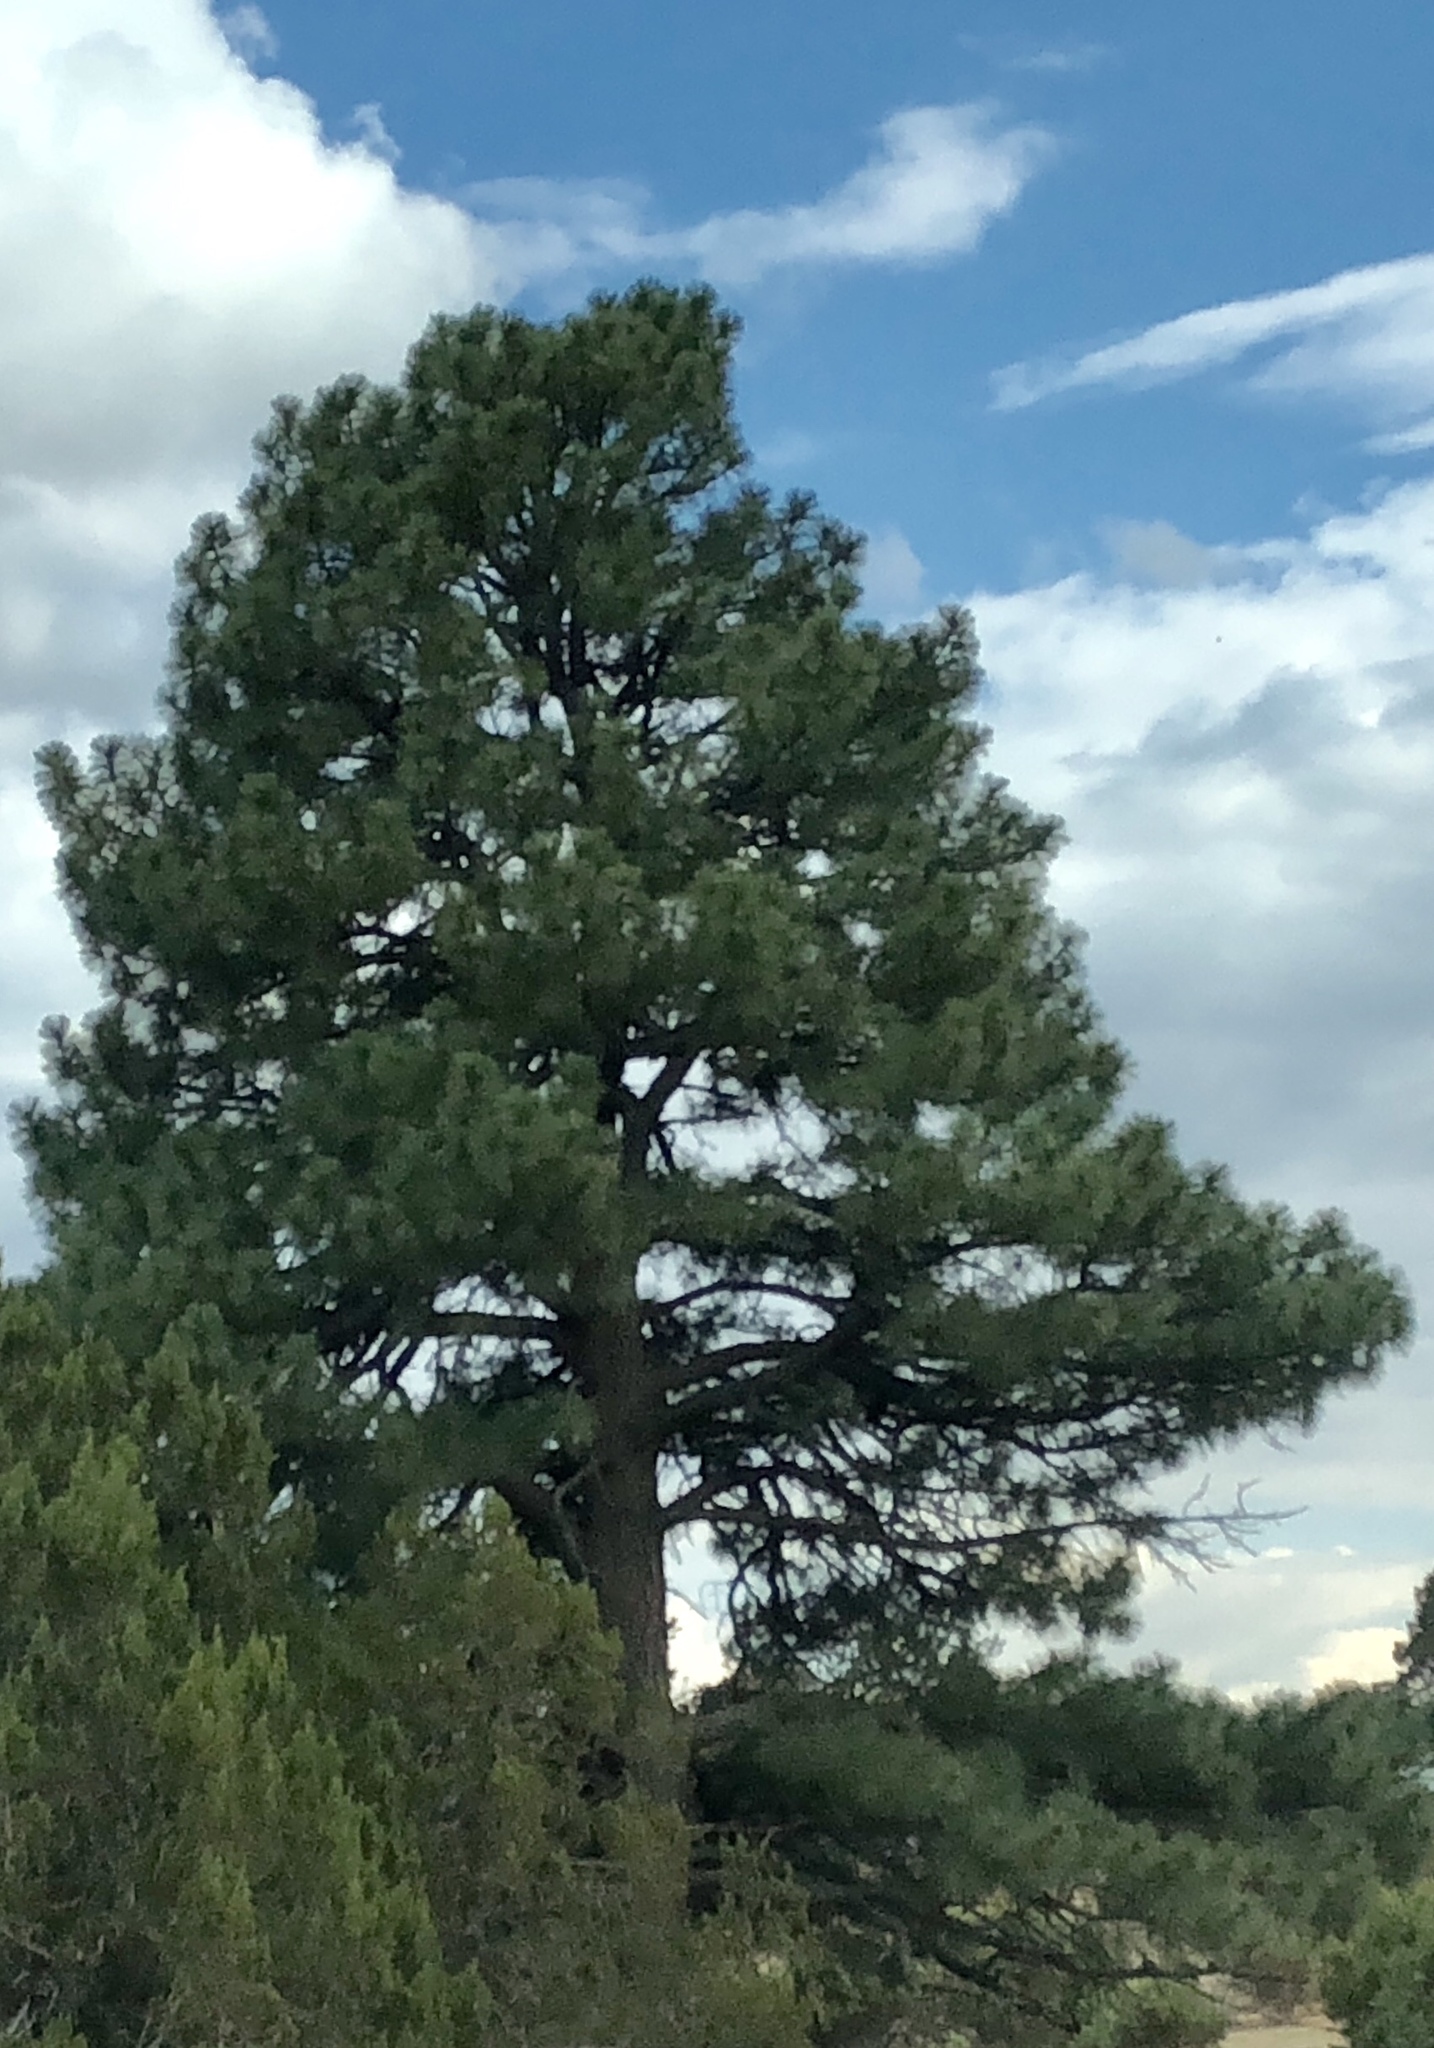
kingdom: Plantae
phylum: Tracheophyta
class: Pinopsida
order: Pinales
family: Pinaceae
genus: Pinus
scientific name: Pinus ponderosa
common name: Western yellow-pine
